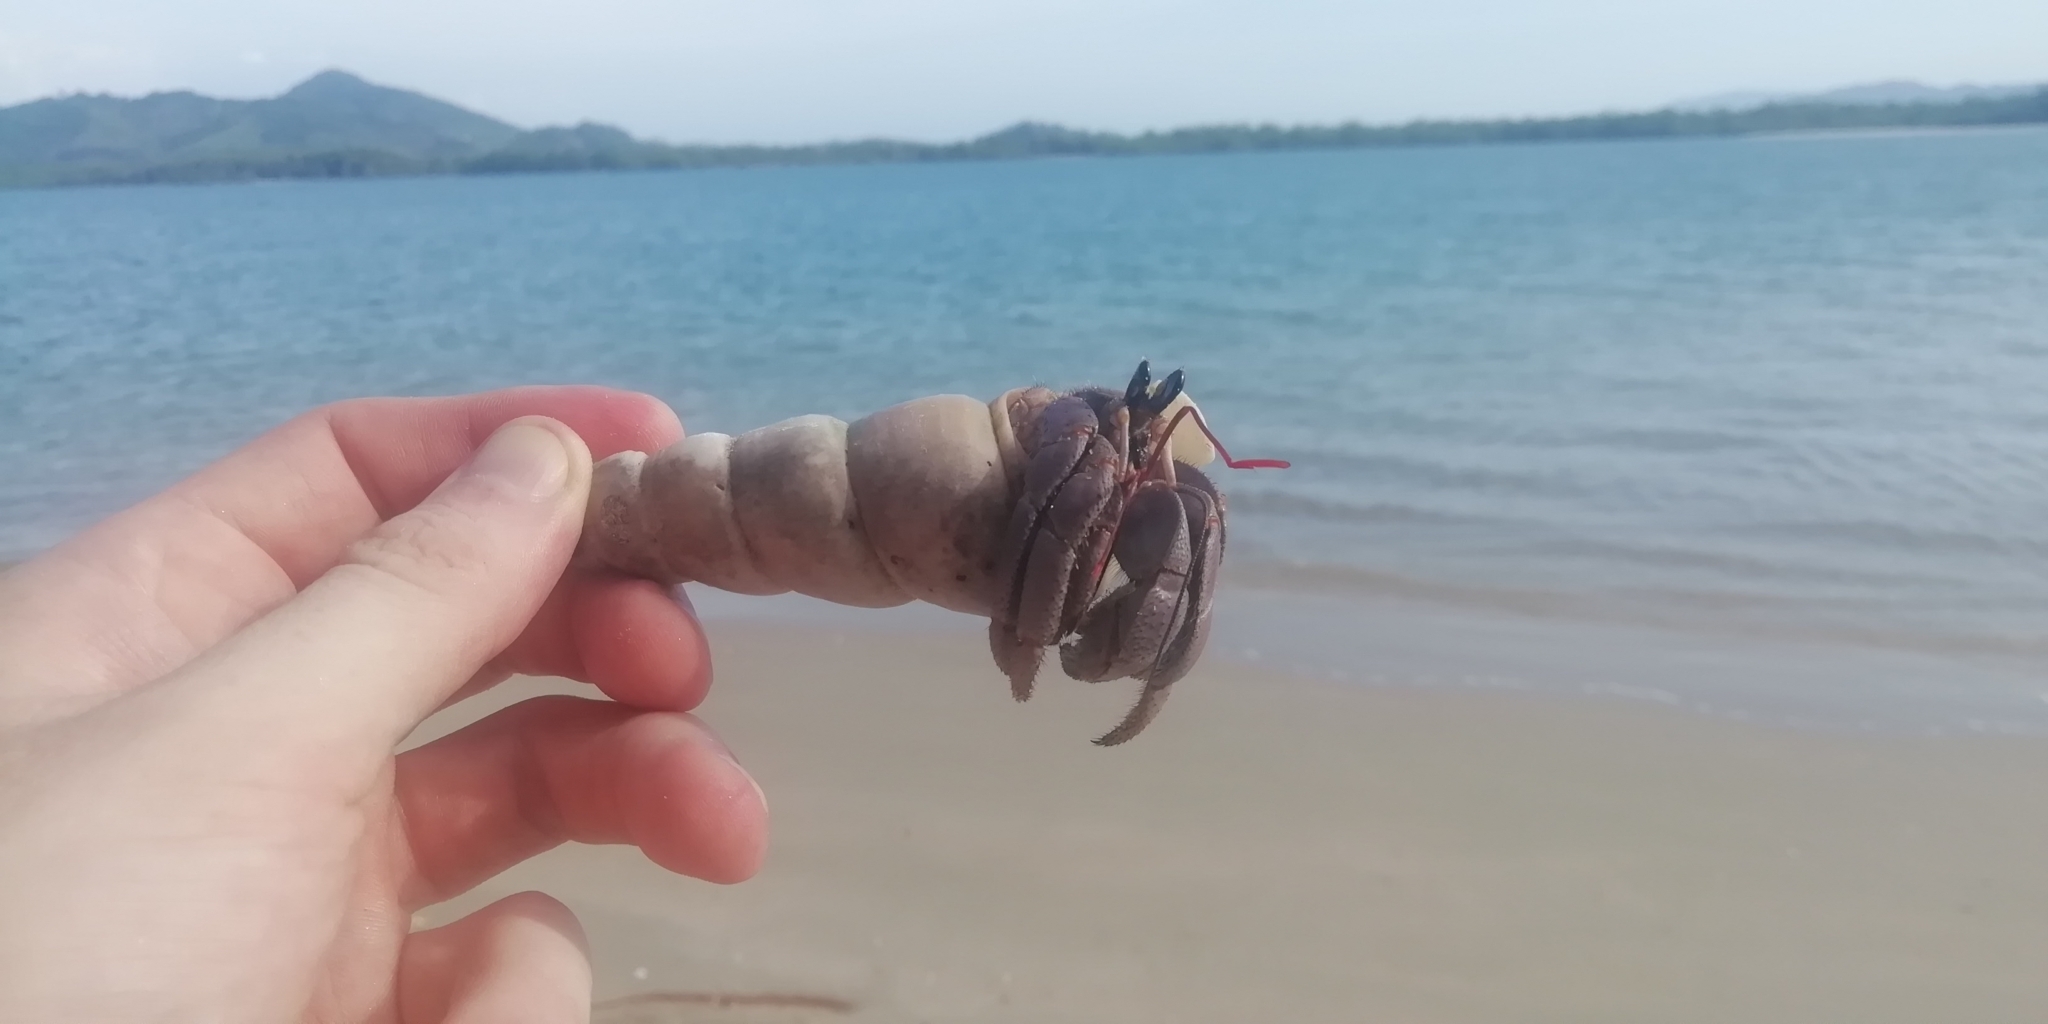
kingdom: Animalia
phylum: Arthropoda
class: Malacostraca
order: Decapoda
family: Coenobitidae
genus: Coenobita
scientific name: Coenobita violascens
